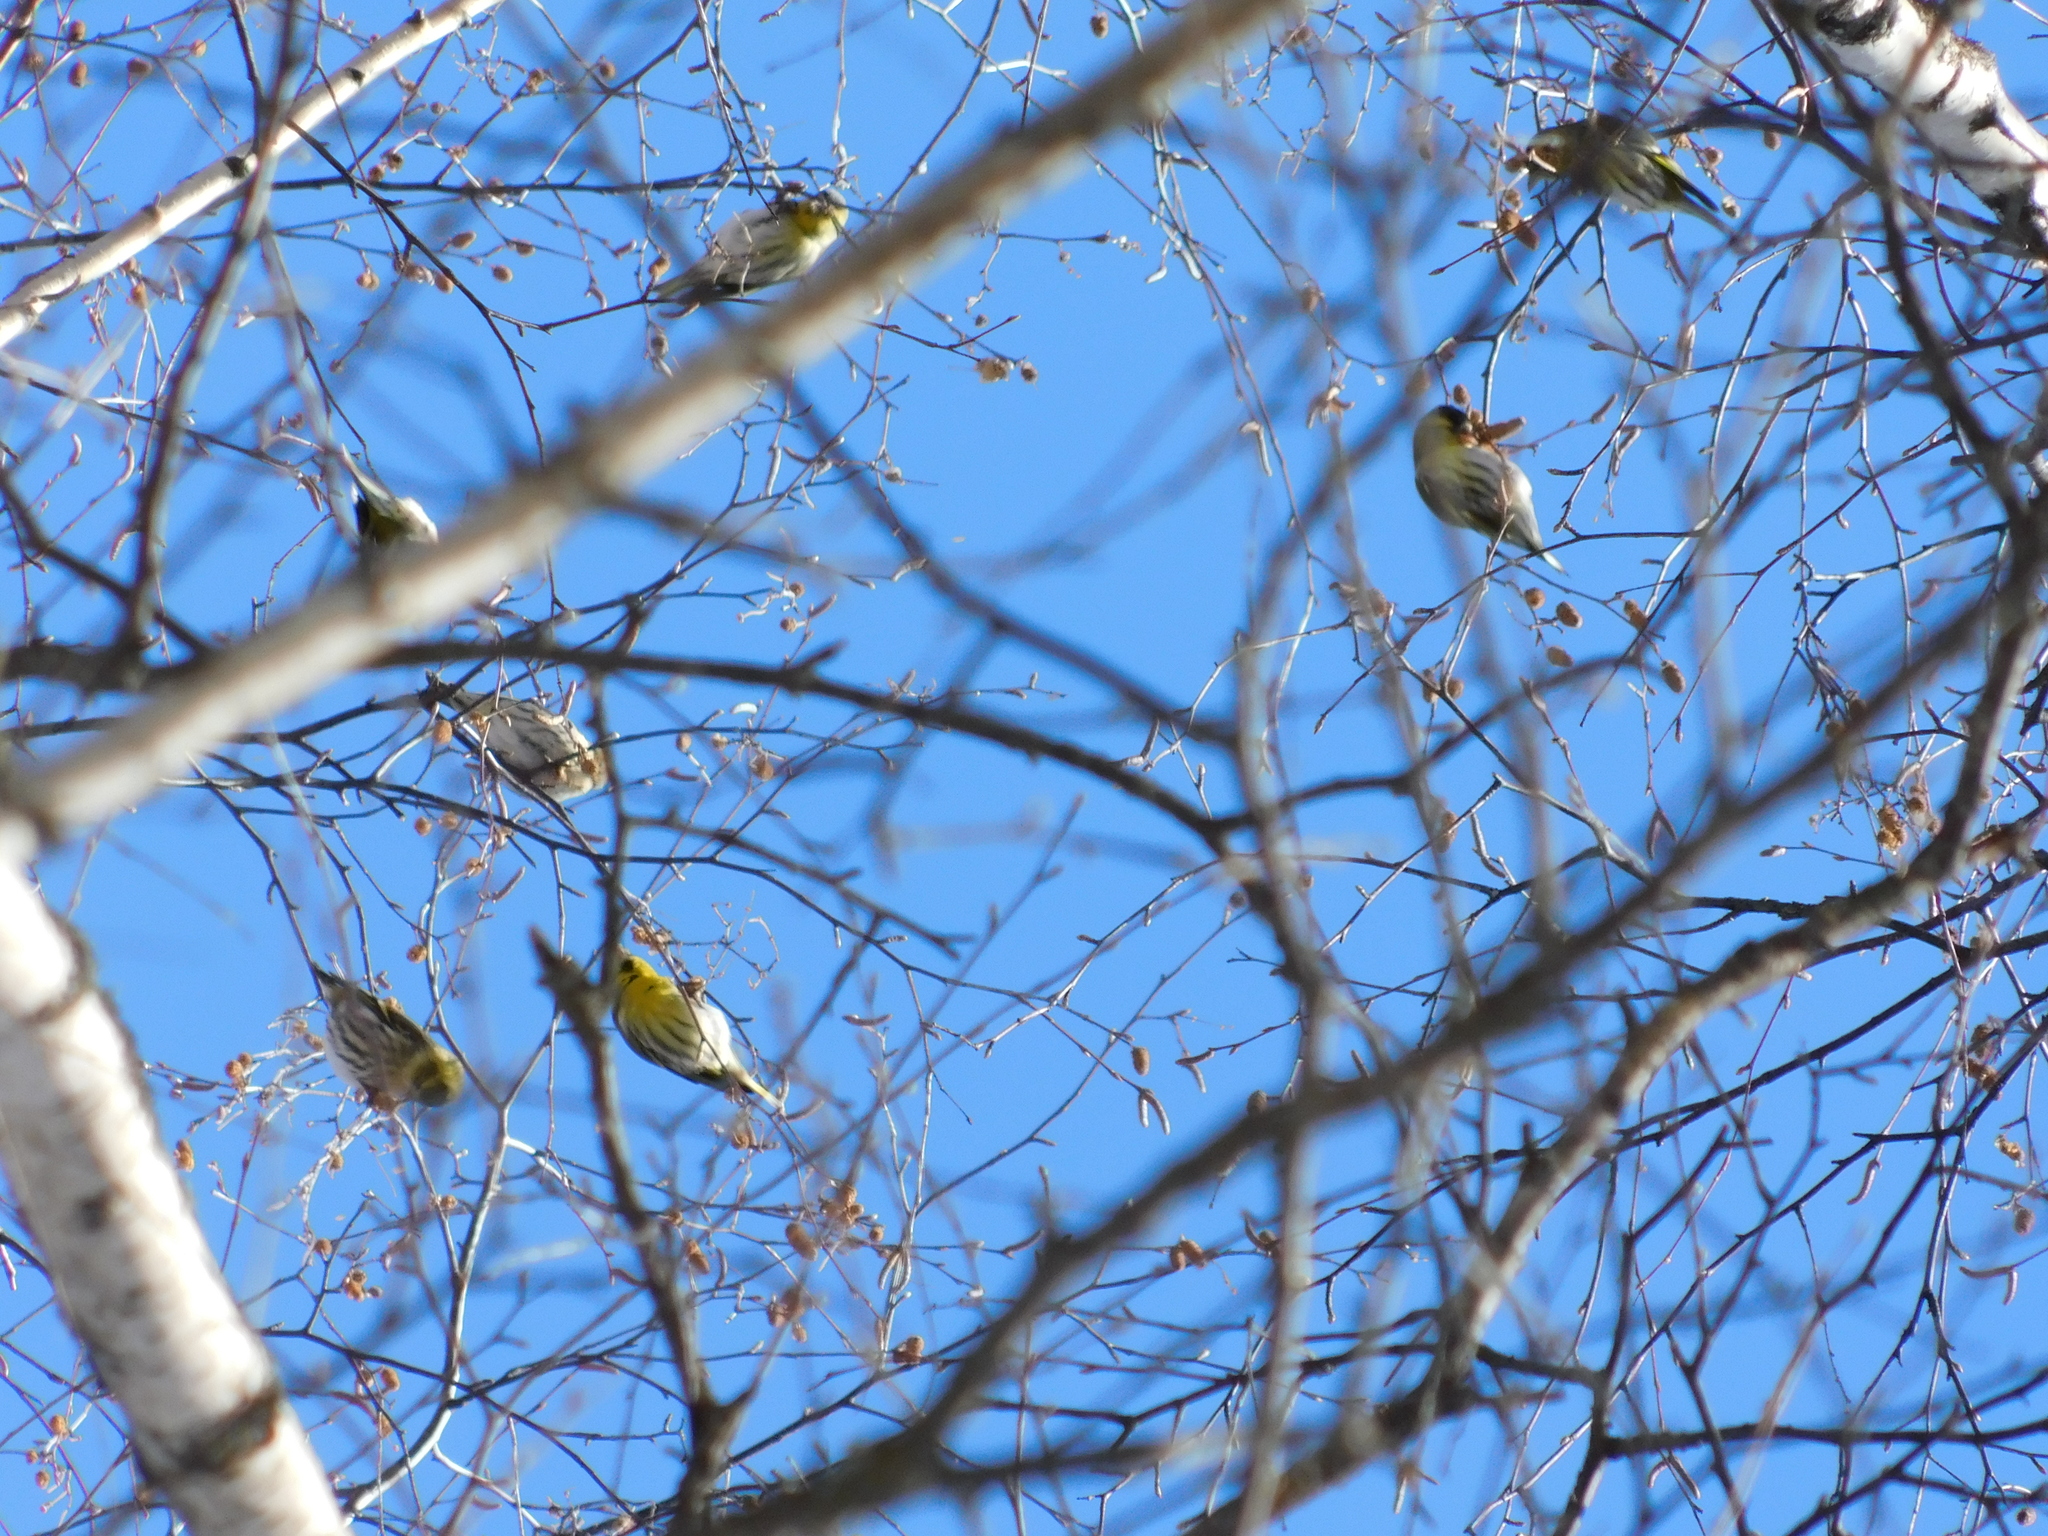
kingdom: Animalia
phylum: Chordata
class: Aves
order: Passeriformes
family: Fringillidae
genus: Spinus
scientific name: Spinus spinus
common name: Eurasian siskin
